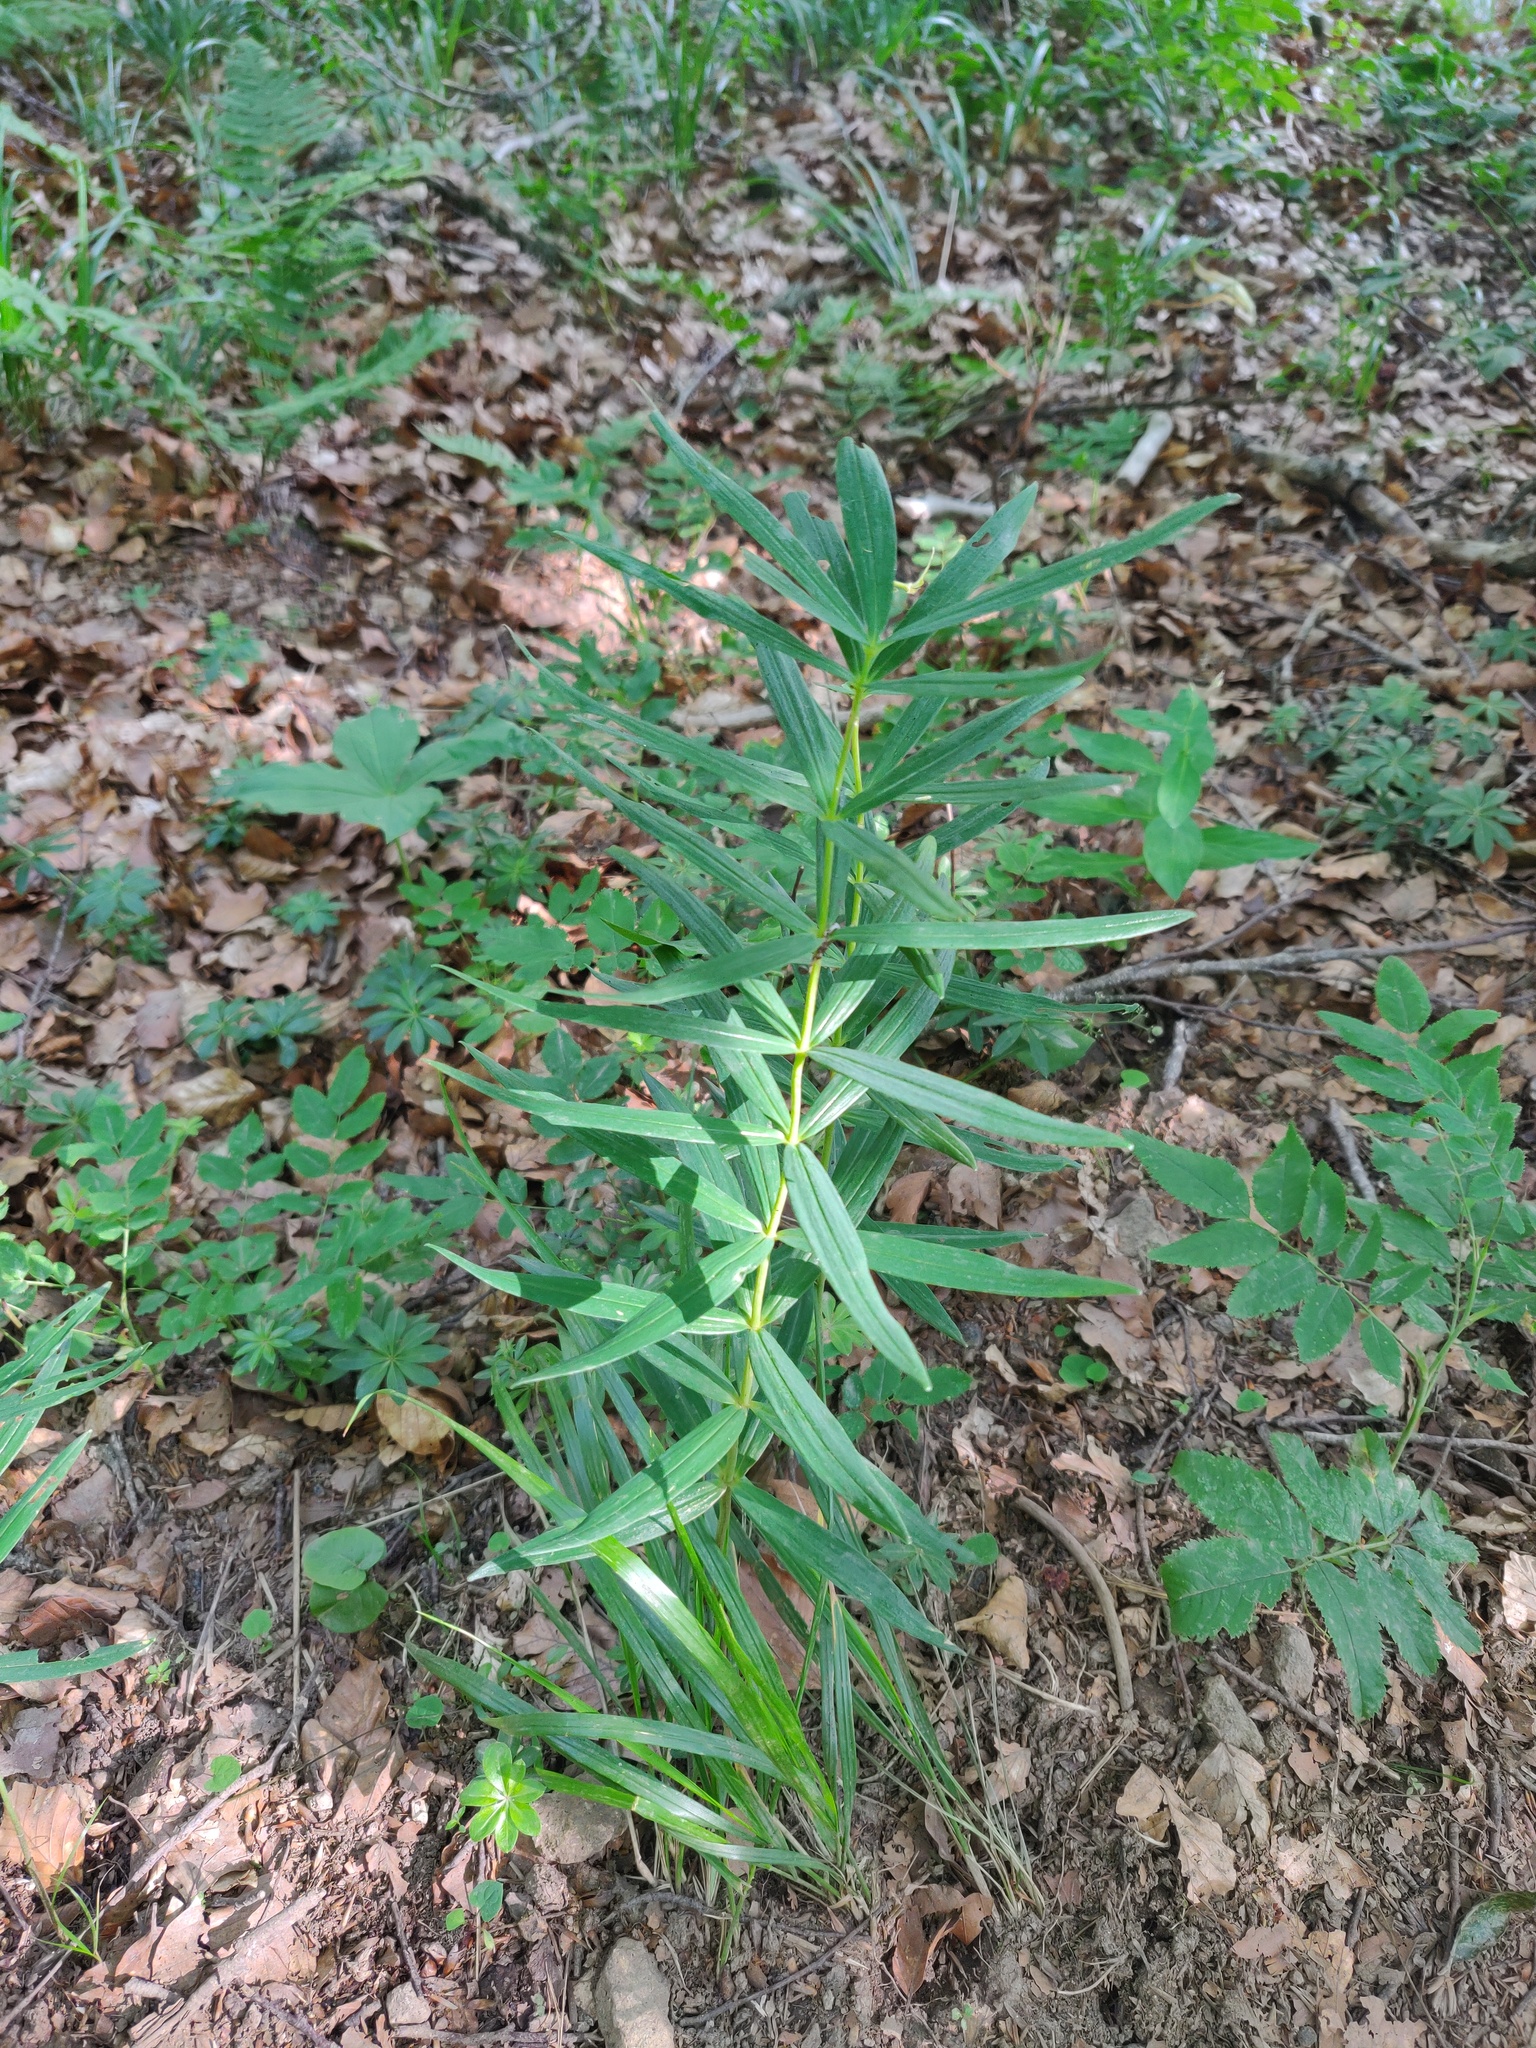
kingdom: Plantae
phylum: Tracheophyta
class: Liliopsida
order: Asparagales
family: Asparagaceae
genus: Polygonatum
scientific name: Polygonatum verticillatum
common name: Whorled solomon's-seal
